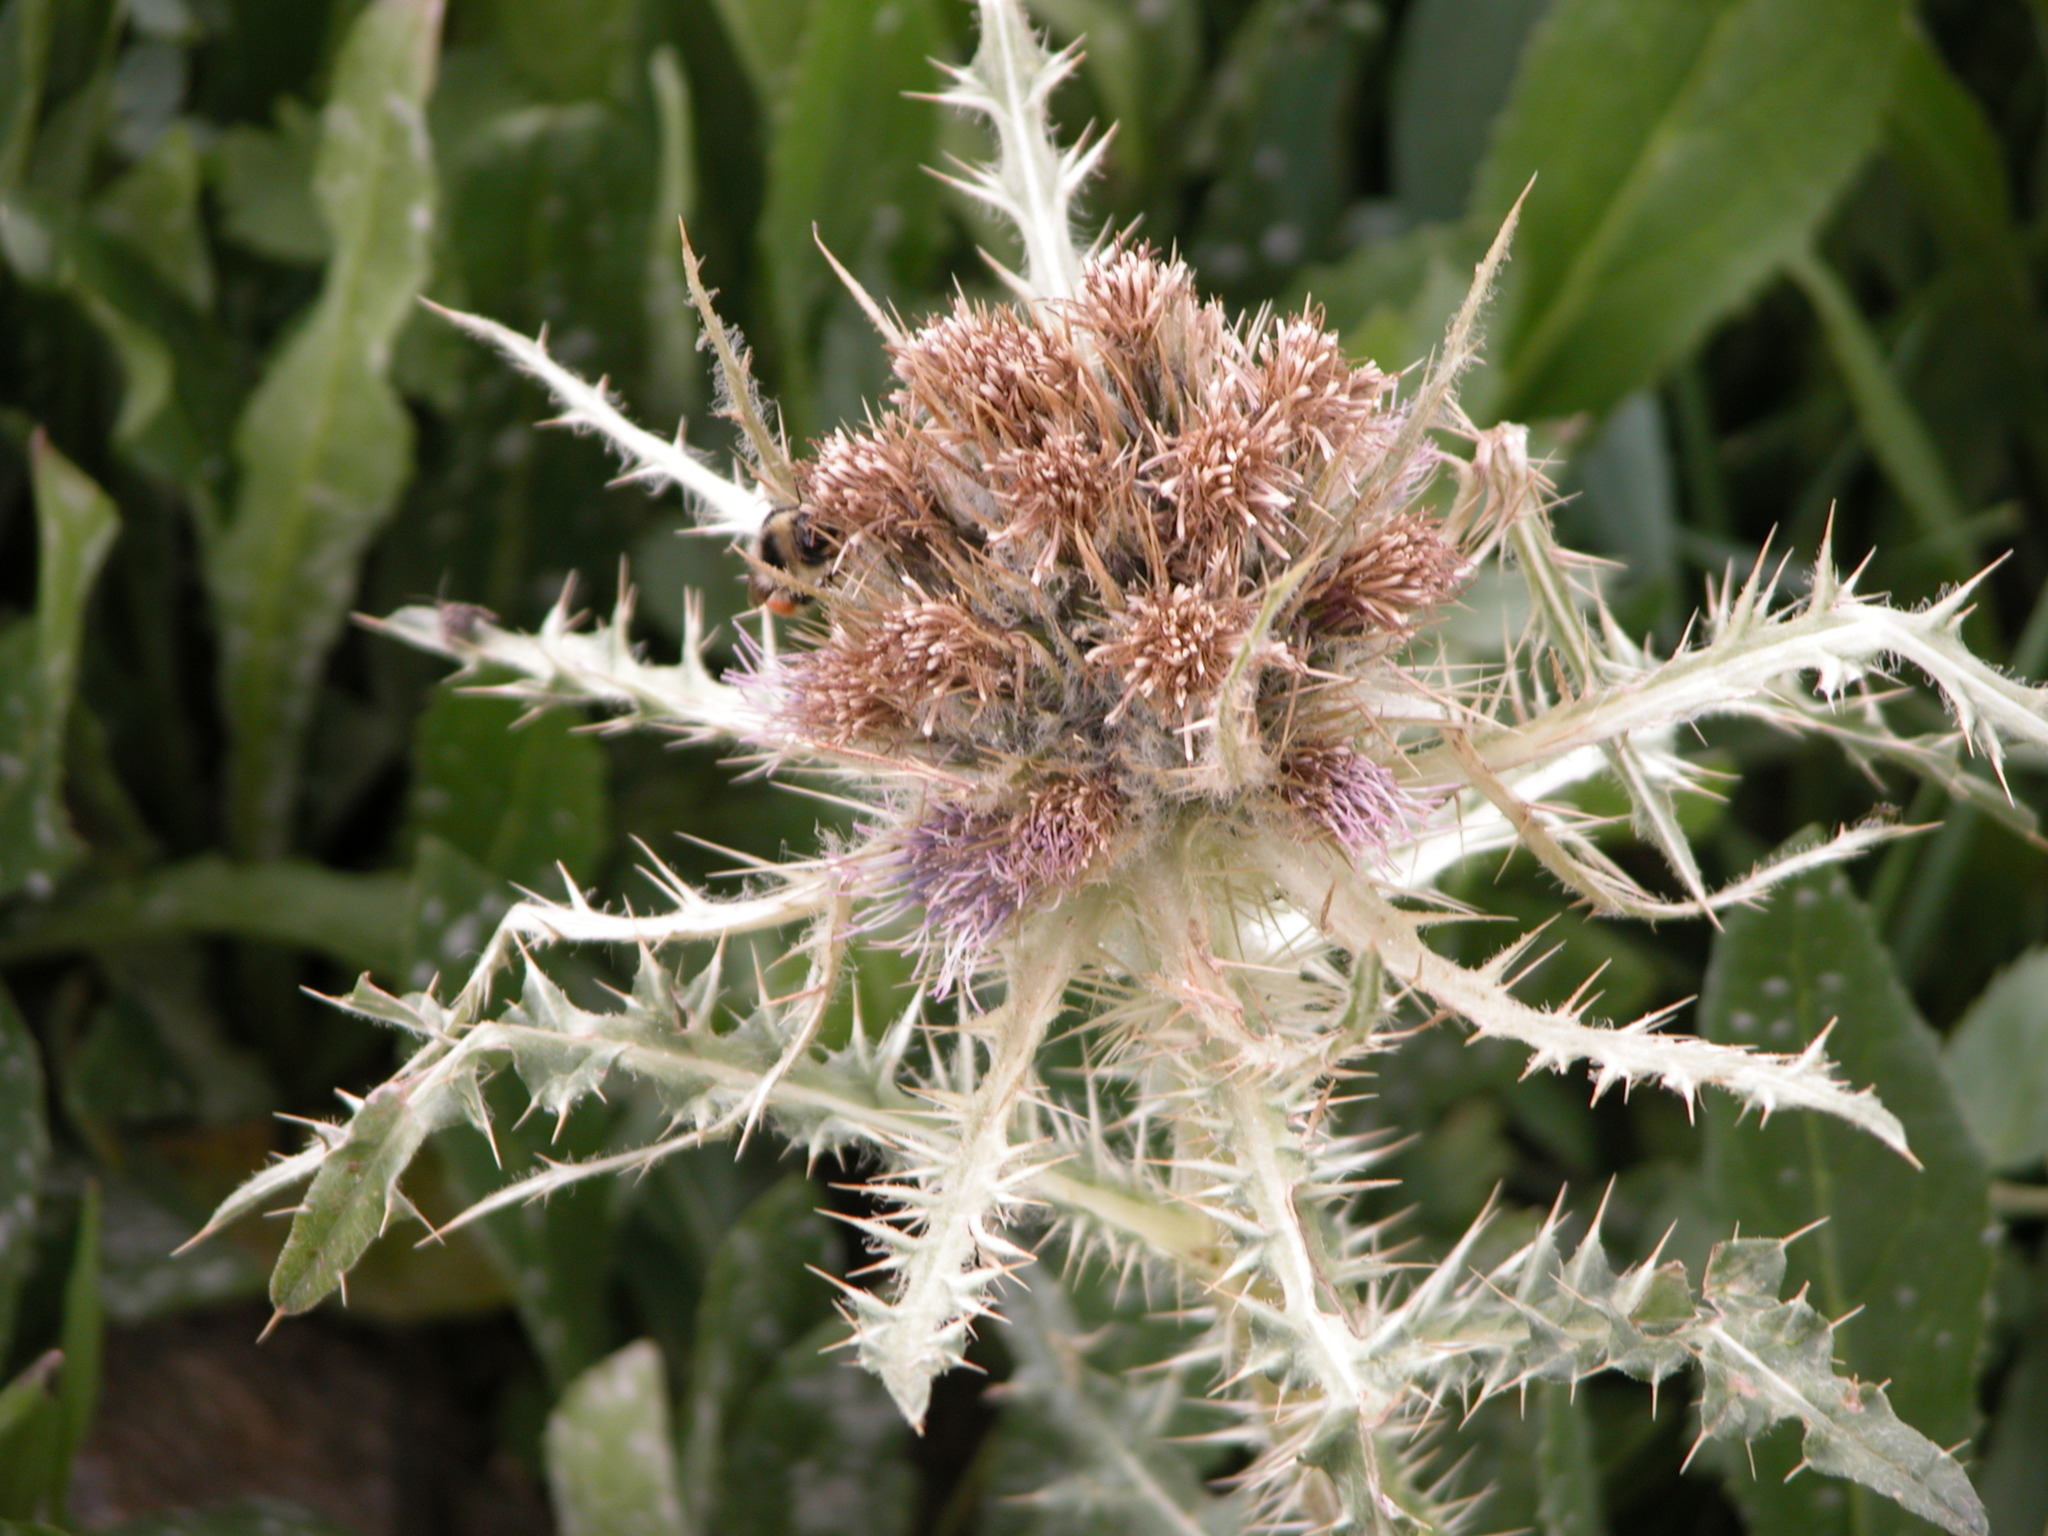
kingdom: Plantae
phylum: Tracheophyta
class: Magnoliopsida
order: Asterales
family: Asteraceae
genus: Cirsium
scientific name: Cirsium coloradense
